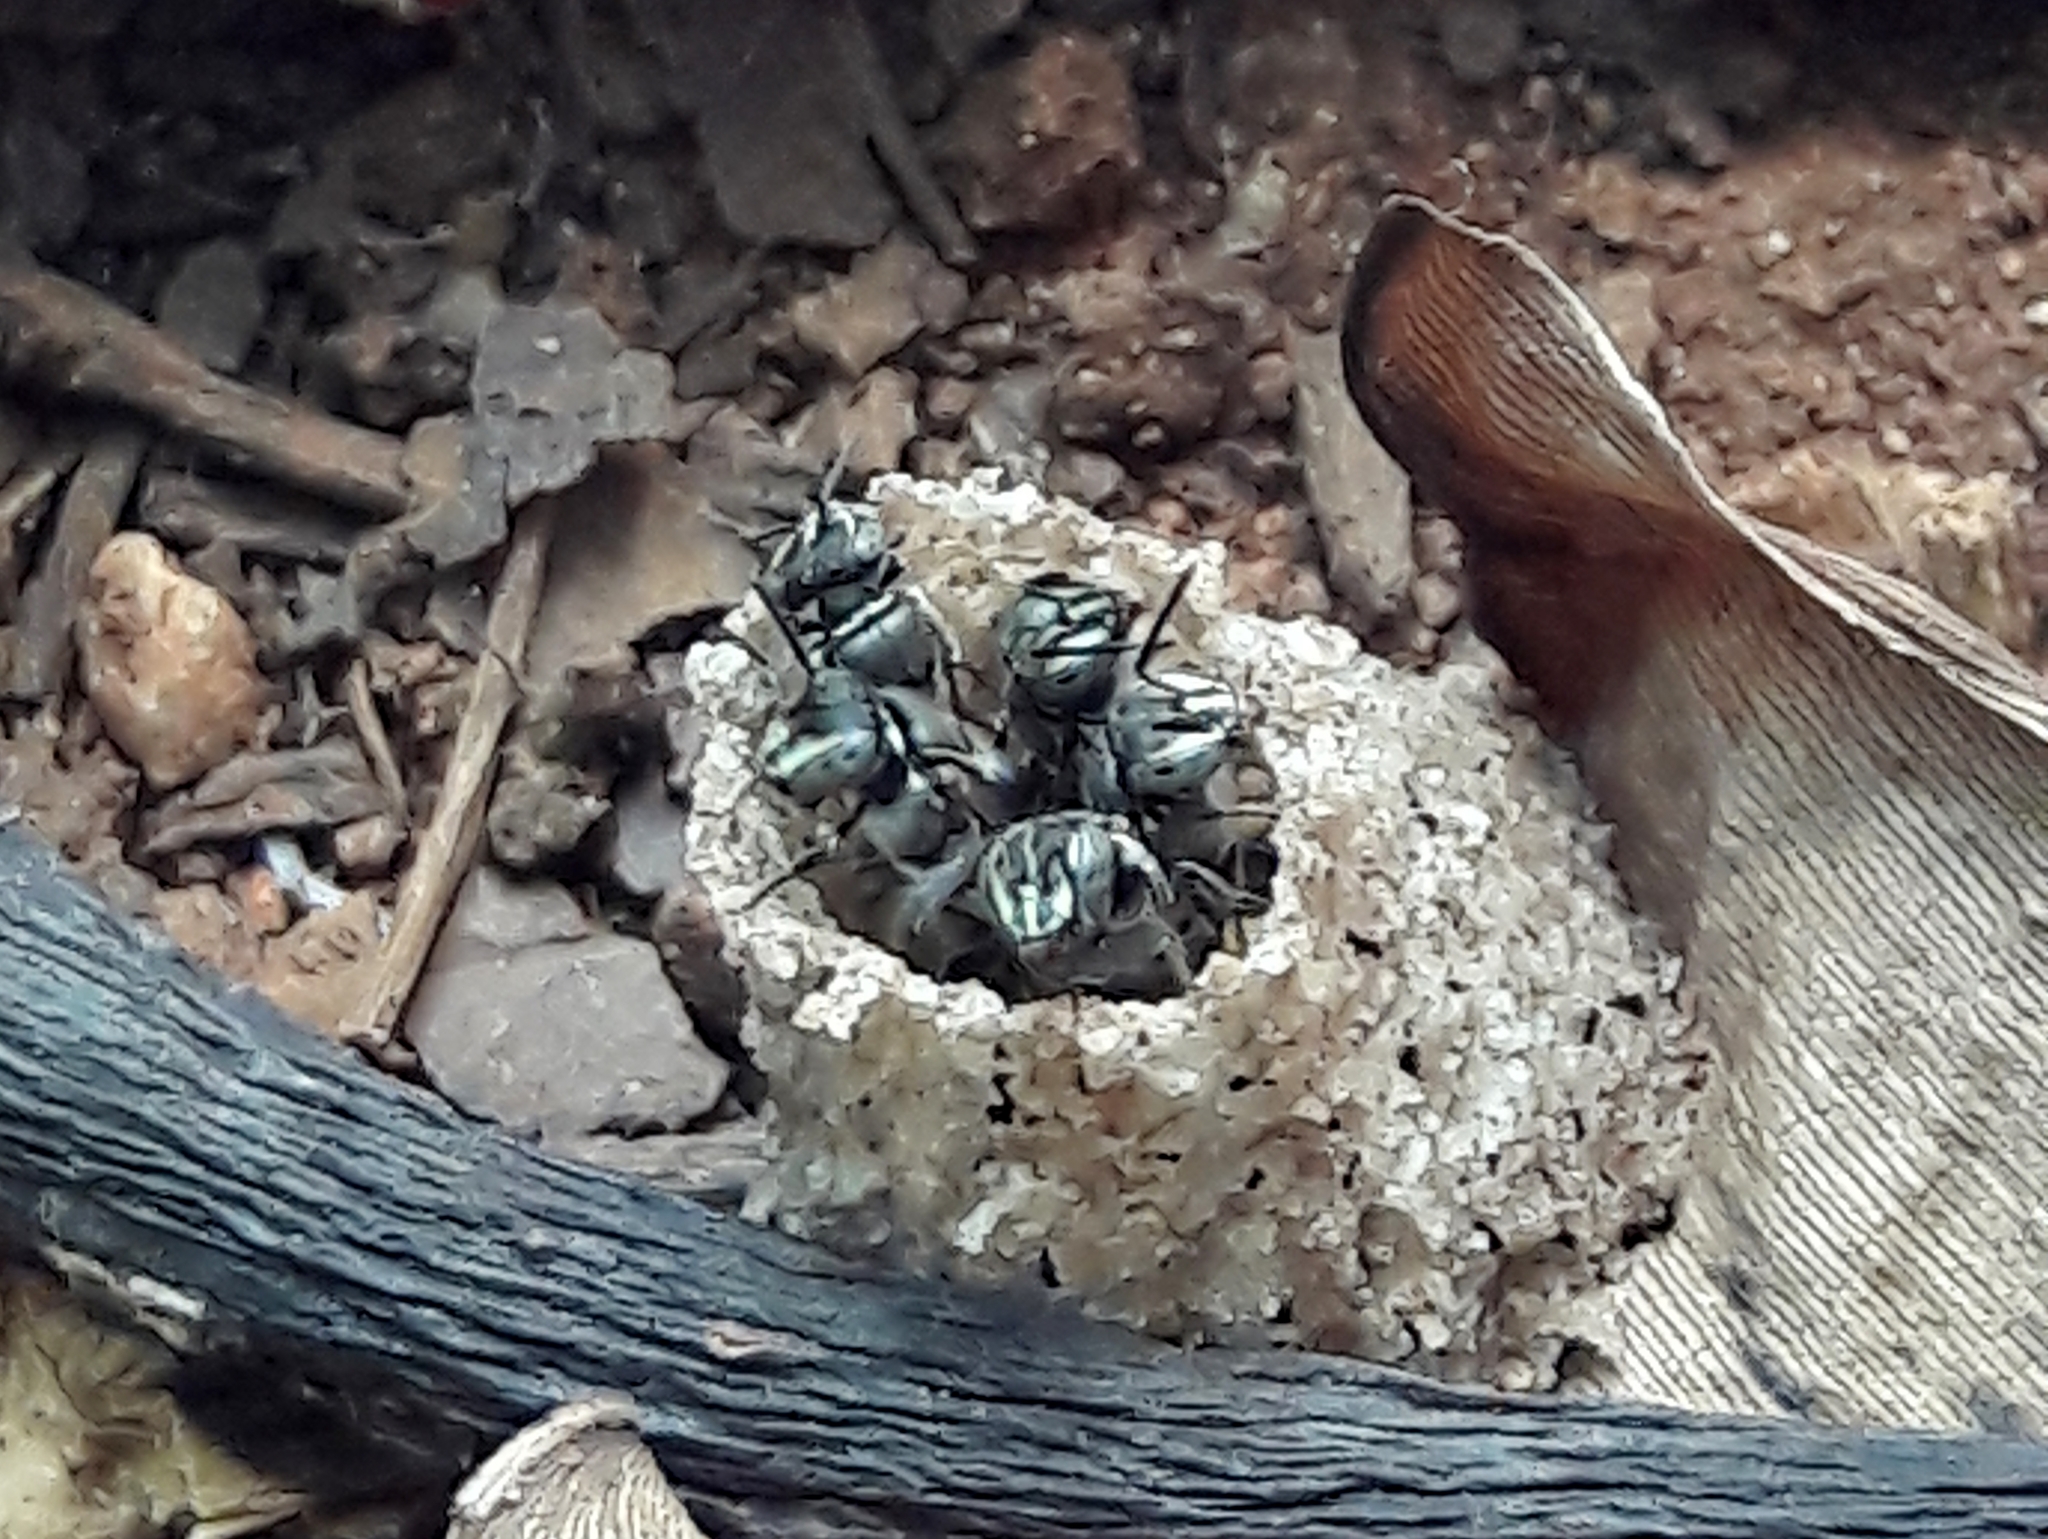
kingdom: Animalia
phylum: Arthropoda
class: Insecta
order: Hymenoptera
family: Apidae
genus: Paratrigona
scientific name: Paratrigona lineata
